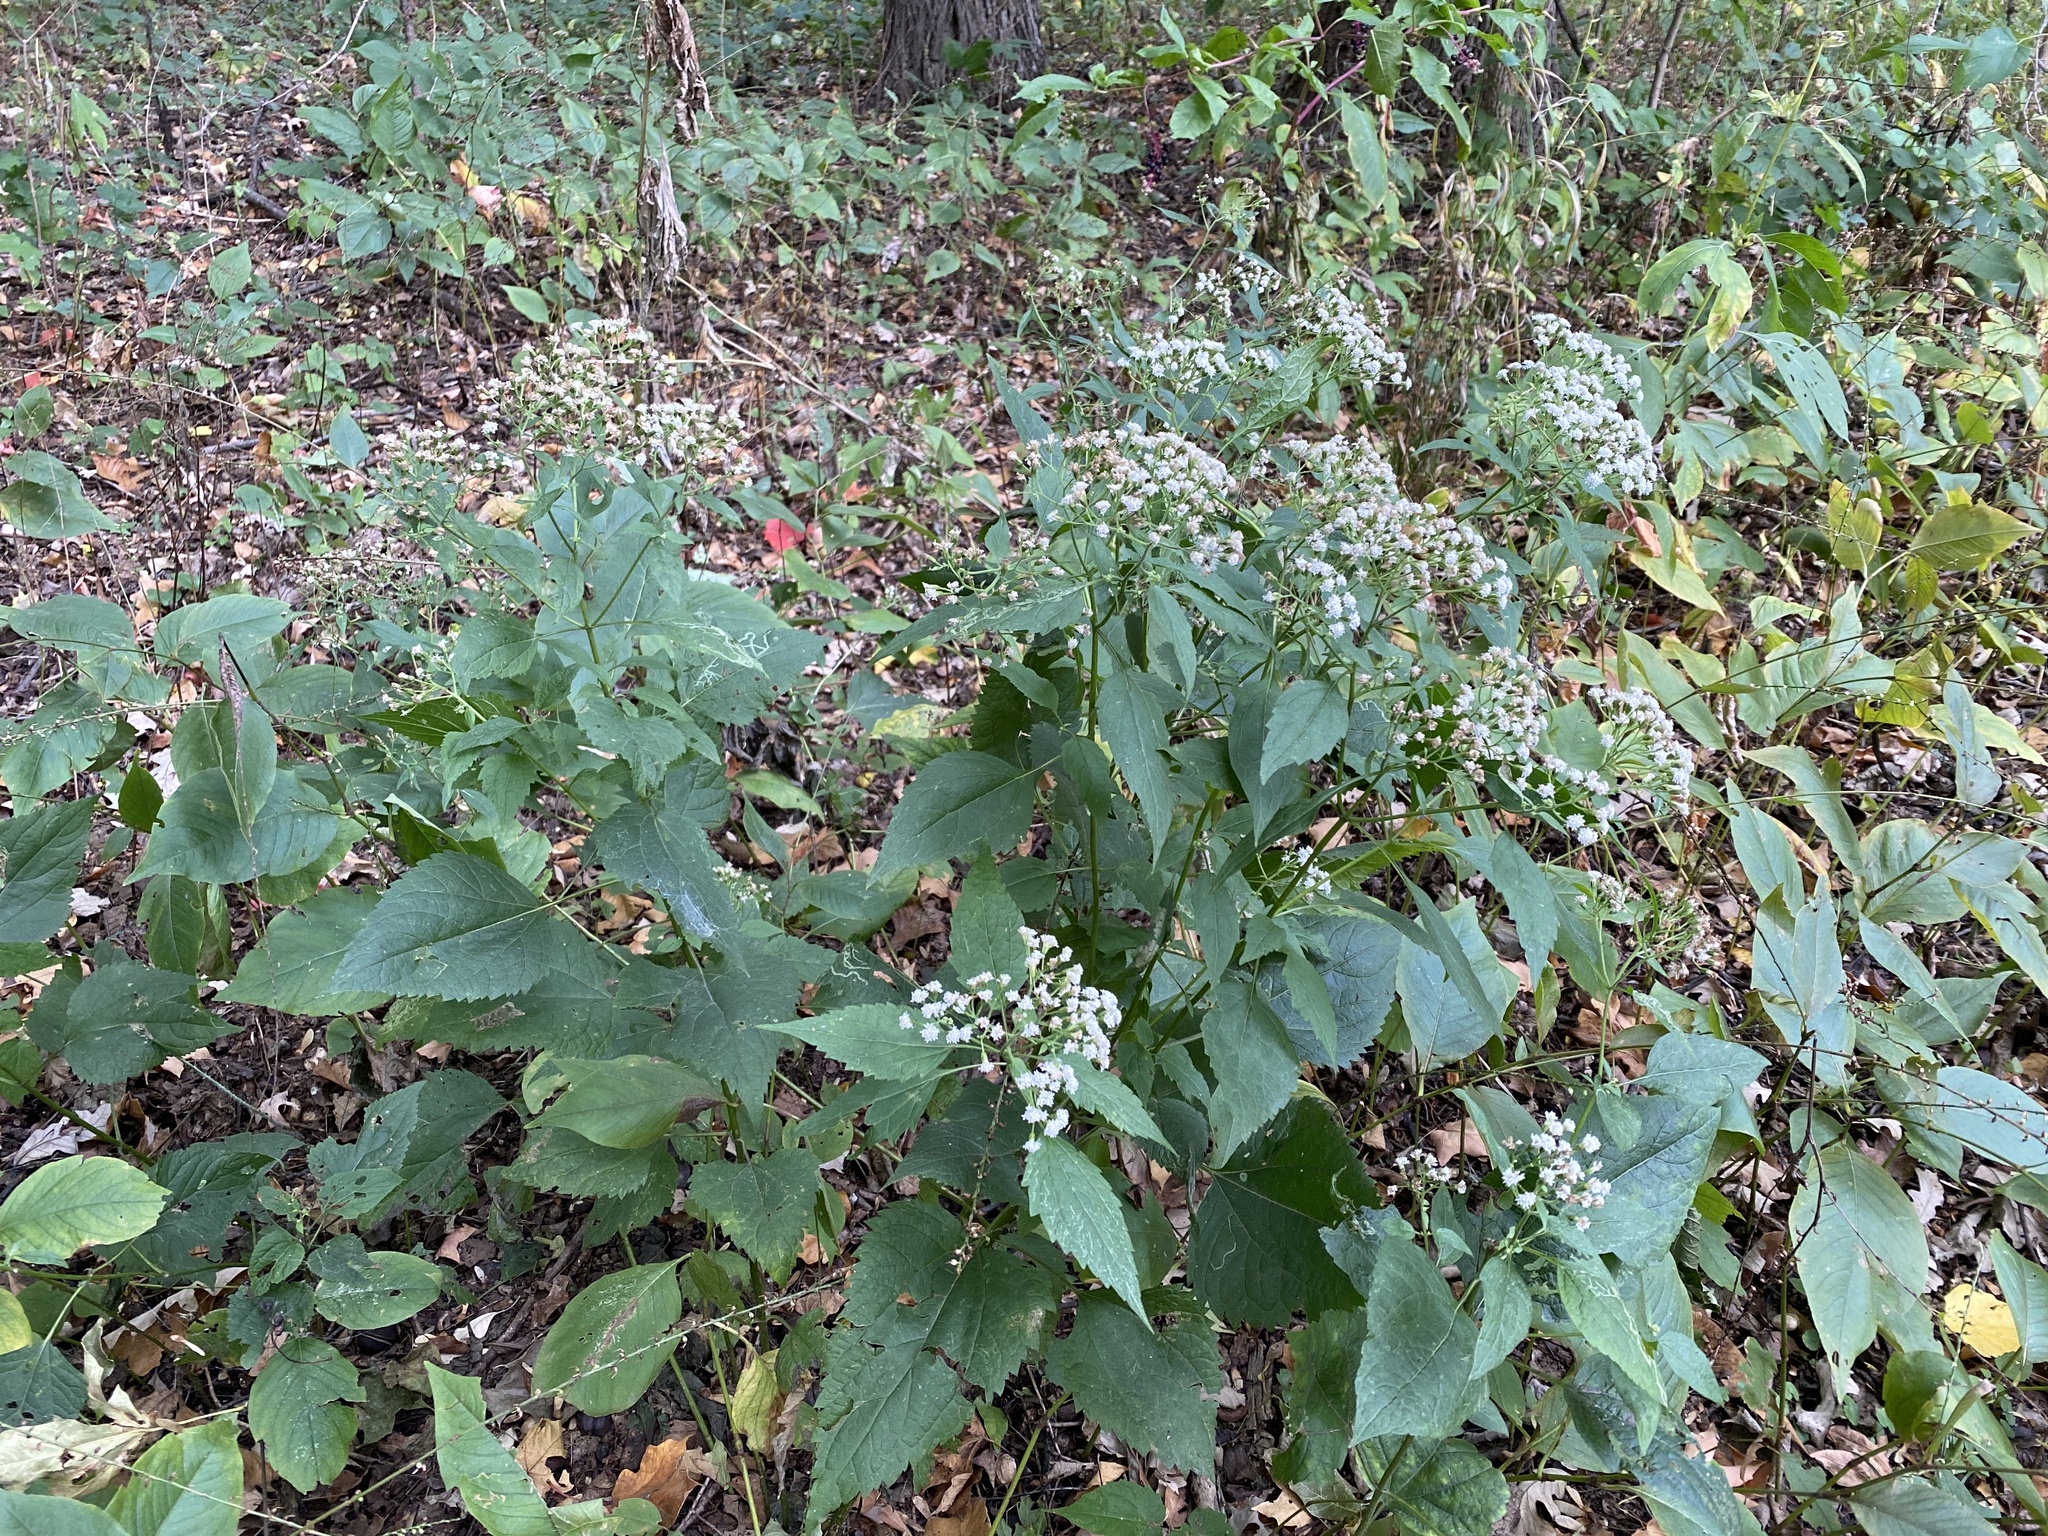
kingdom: Plantae
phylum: Tracheophyta
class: Magnoliopsida
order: Asterales
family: Asteraceae
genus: Ageratina
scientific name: Ageratina altissima
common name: White snakeroot
